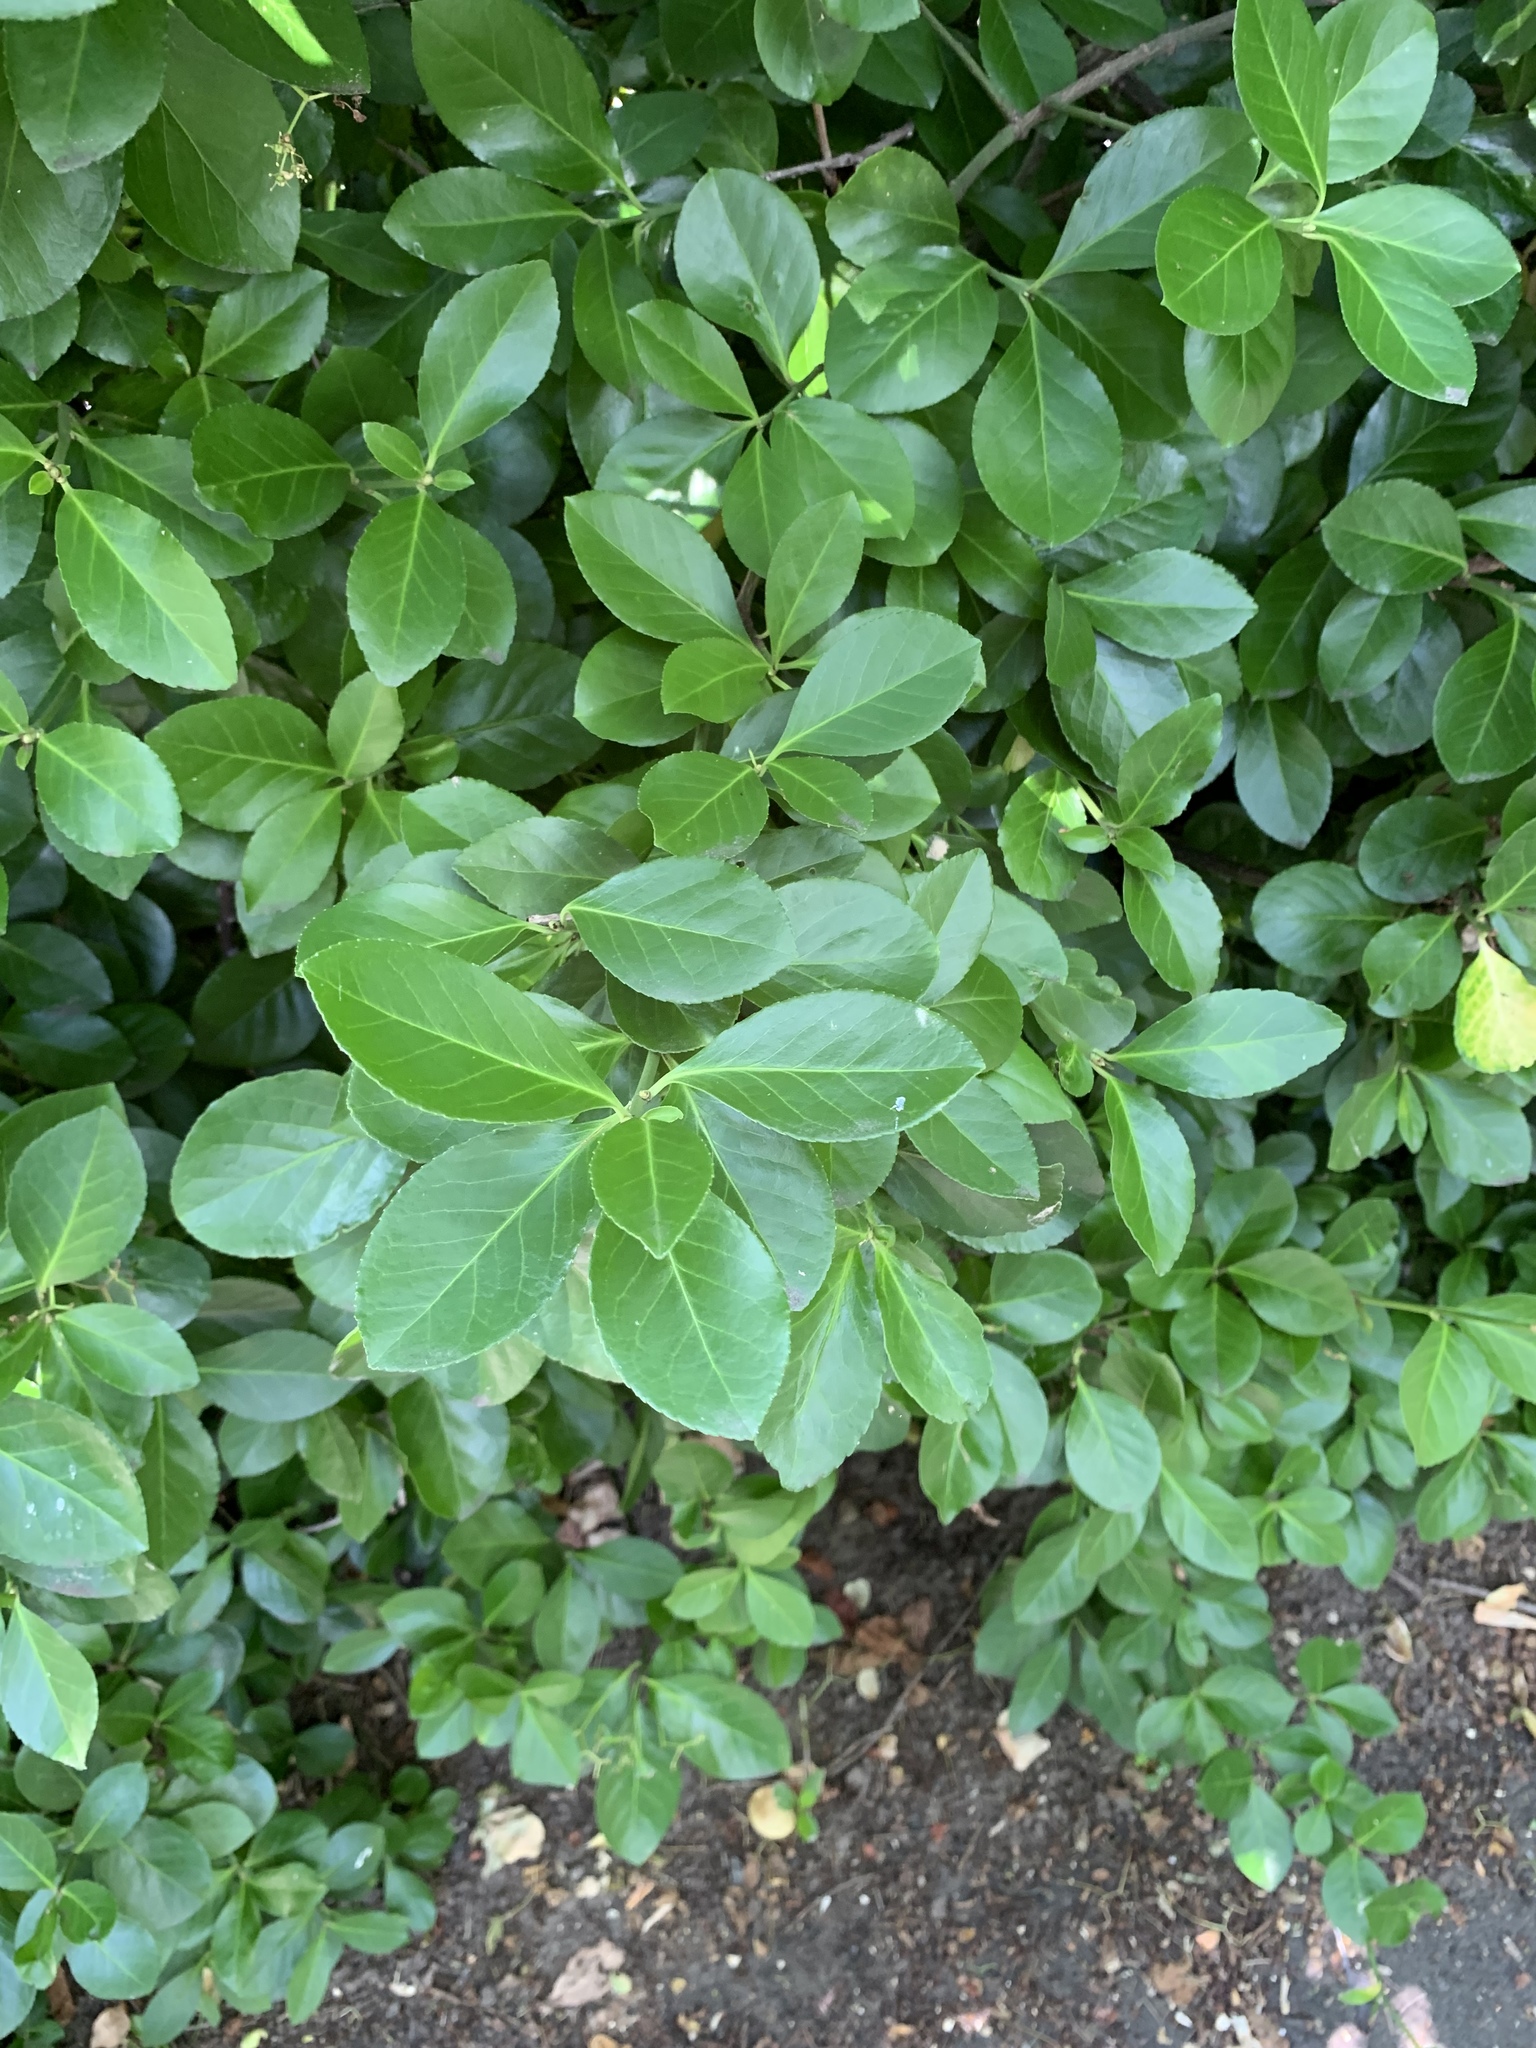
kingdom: Plantae
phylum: Tracheophyta
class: Magnoliopsida
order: Celastrales
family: Celastraceae
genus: Euonymus
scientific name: Euonymus japonicus
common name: Japanese spindletree
